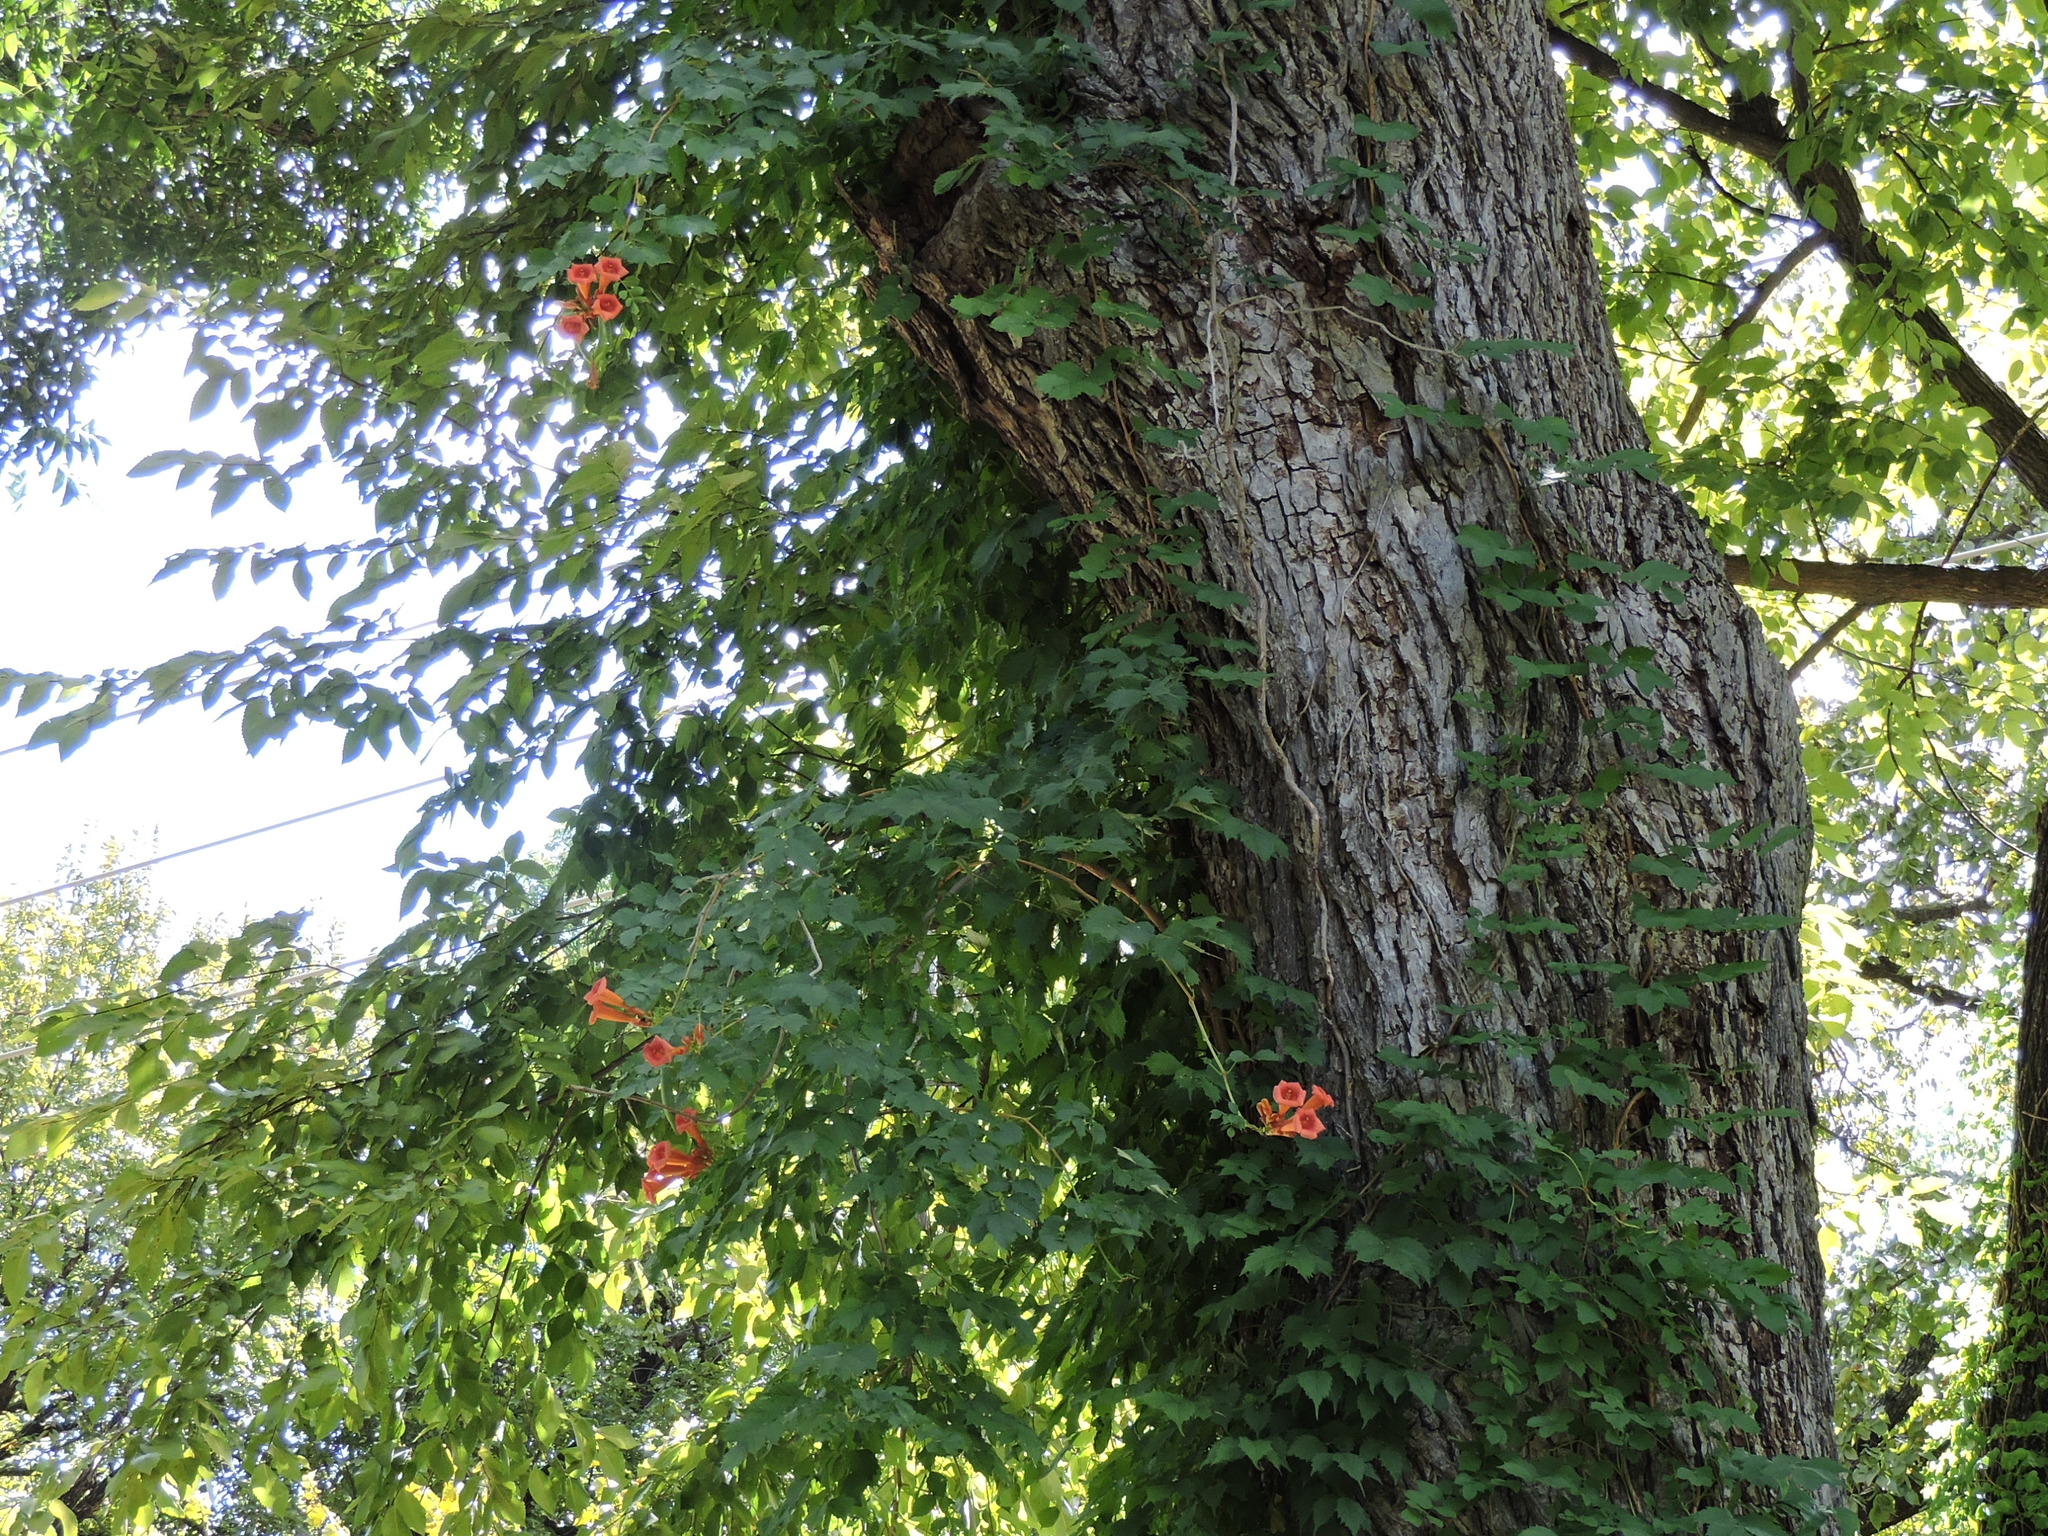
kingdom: Plantae
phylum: Tracheophyta
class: Magnoliopsida
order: Lamiales
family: Bignoniaceae
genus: Campsis
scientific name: Campsis radicans
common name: Trumpet-creeper
